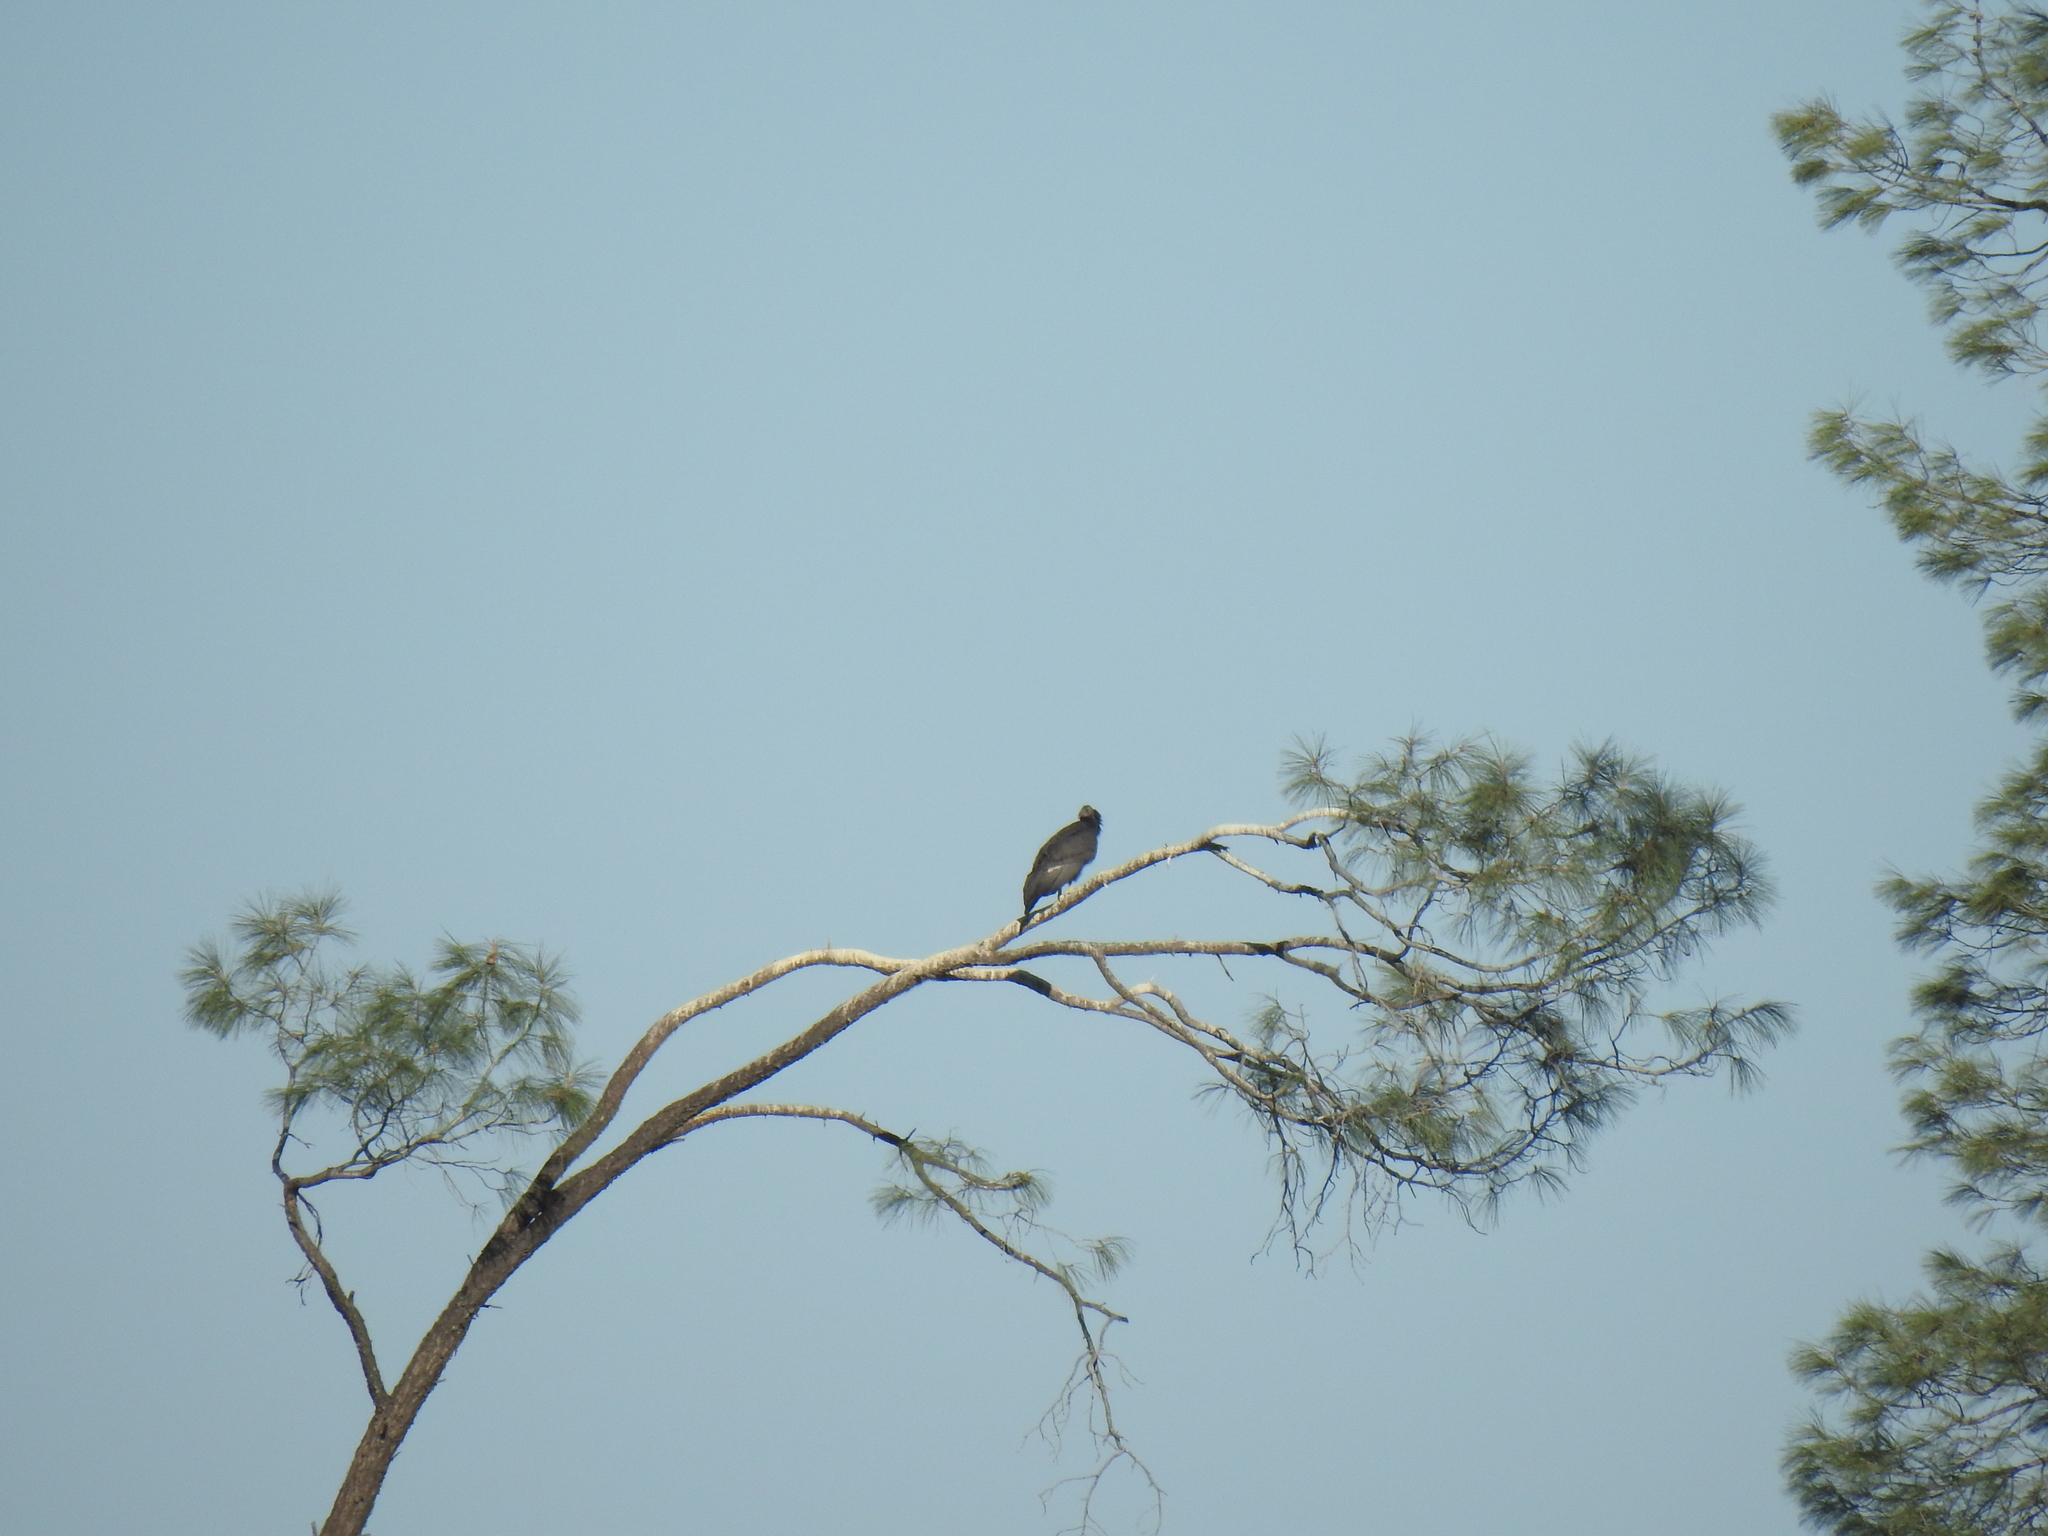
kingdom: Animalia
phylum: Chordata
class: Aves
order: Accipitriformes
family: Cathartidae
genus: Gymnogyps
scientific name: Gymnogyps californianus
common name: California condor
